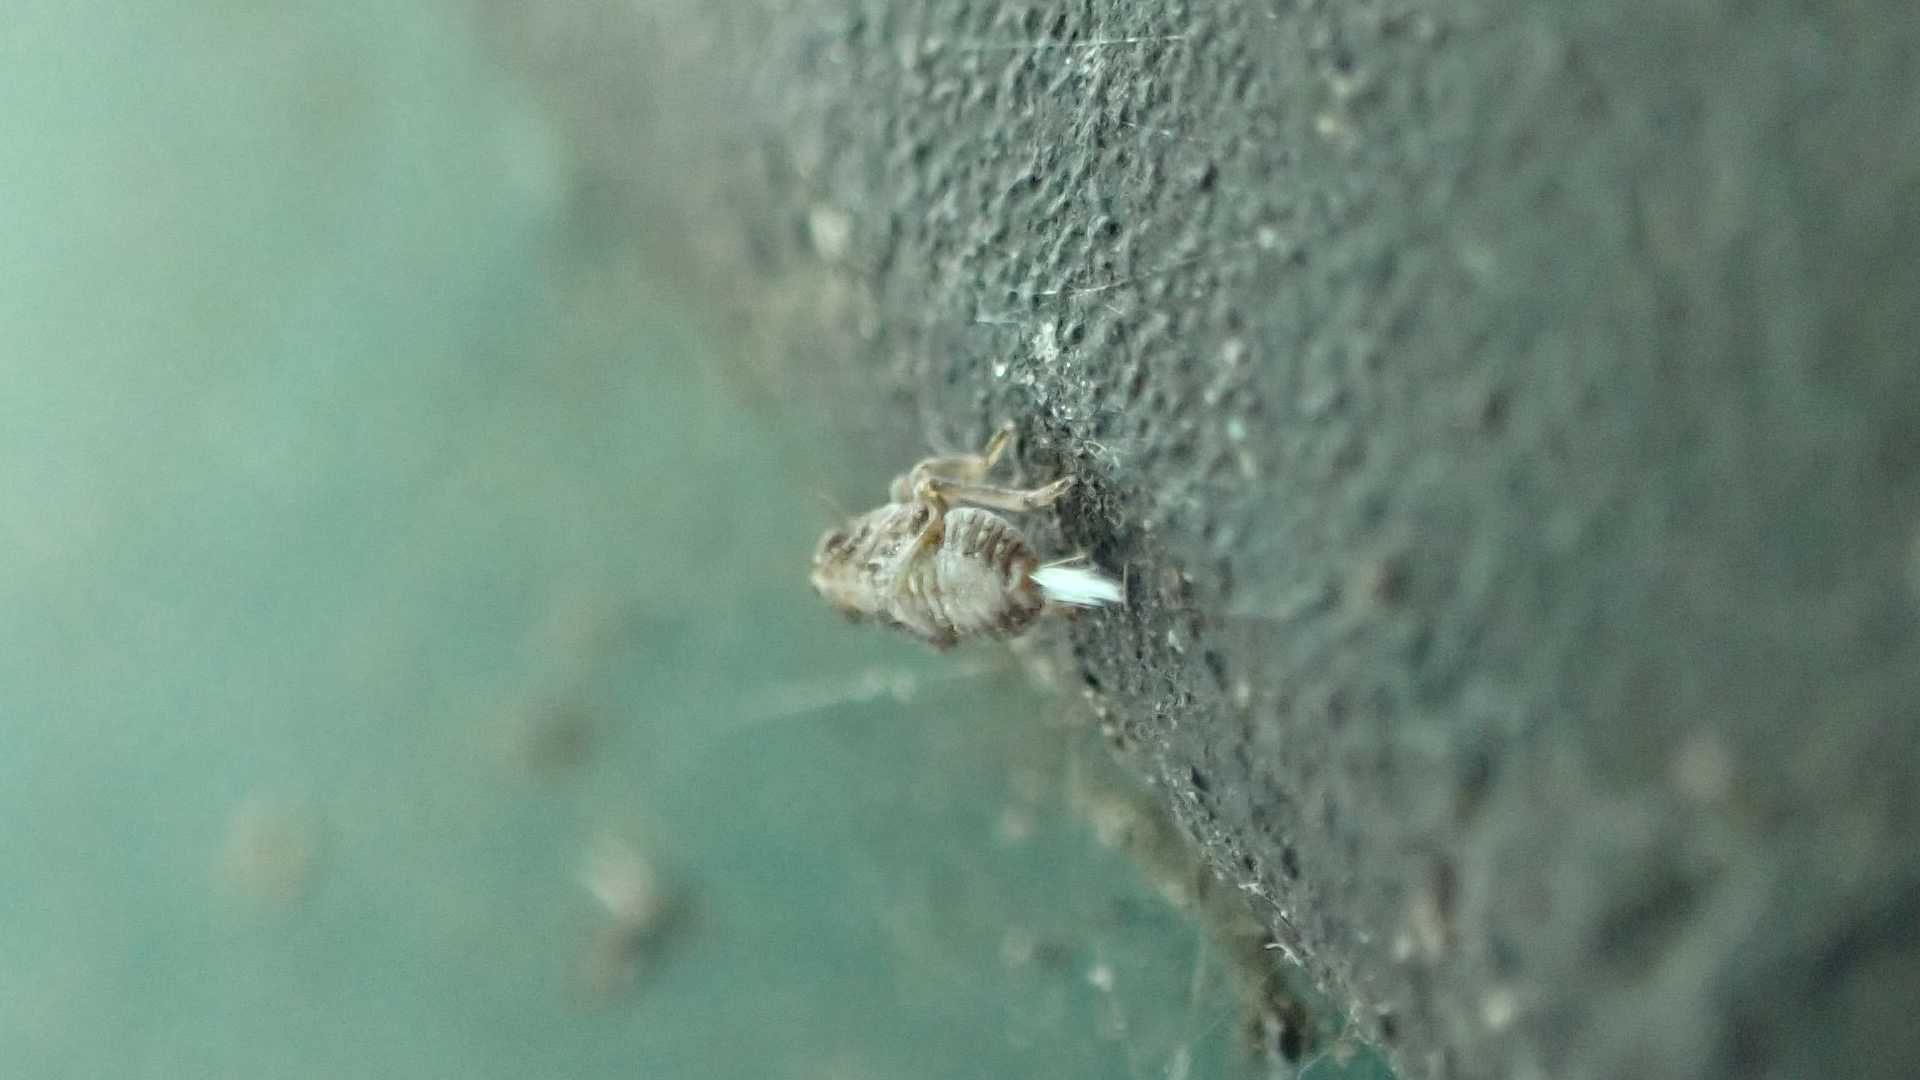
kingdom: Animalia
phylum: Arthropoda
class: Insecta
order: Hemiptera
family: Issidae
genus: Issus
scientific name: Issus
